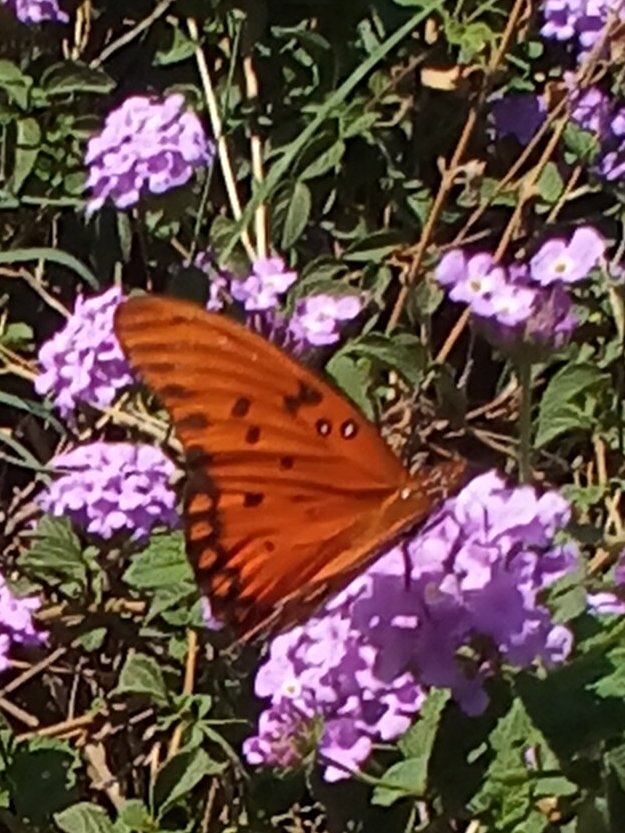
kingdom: Animalia
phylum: Arthropoda
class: Insecta
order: Lepidoptera
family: Nymphalidae
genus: Dione
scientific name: Dione vanillae
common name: Gulf fritillary
